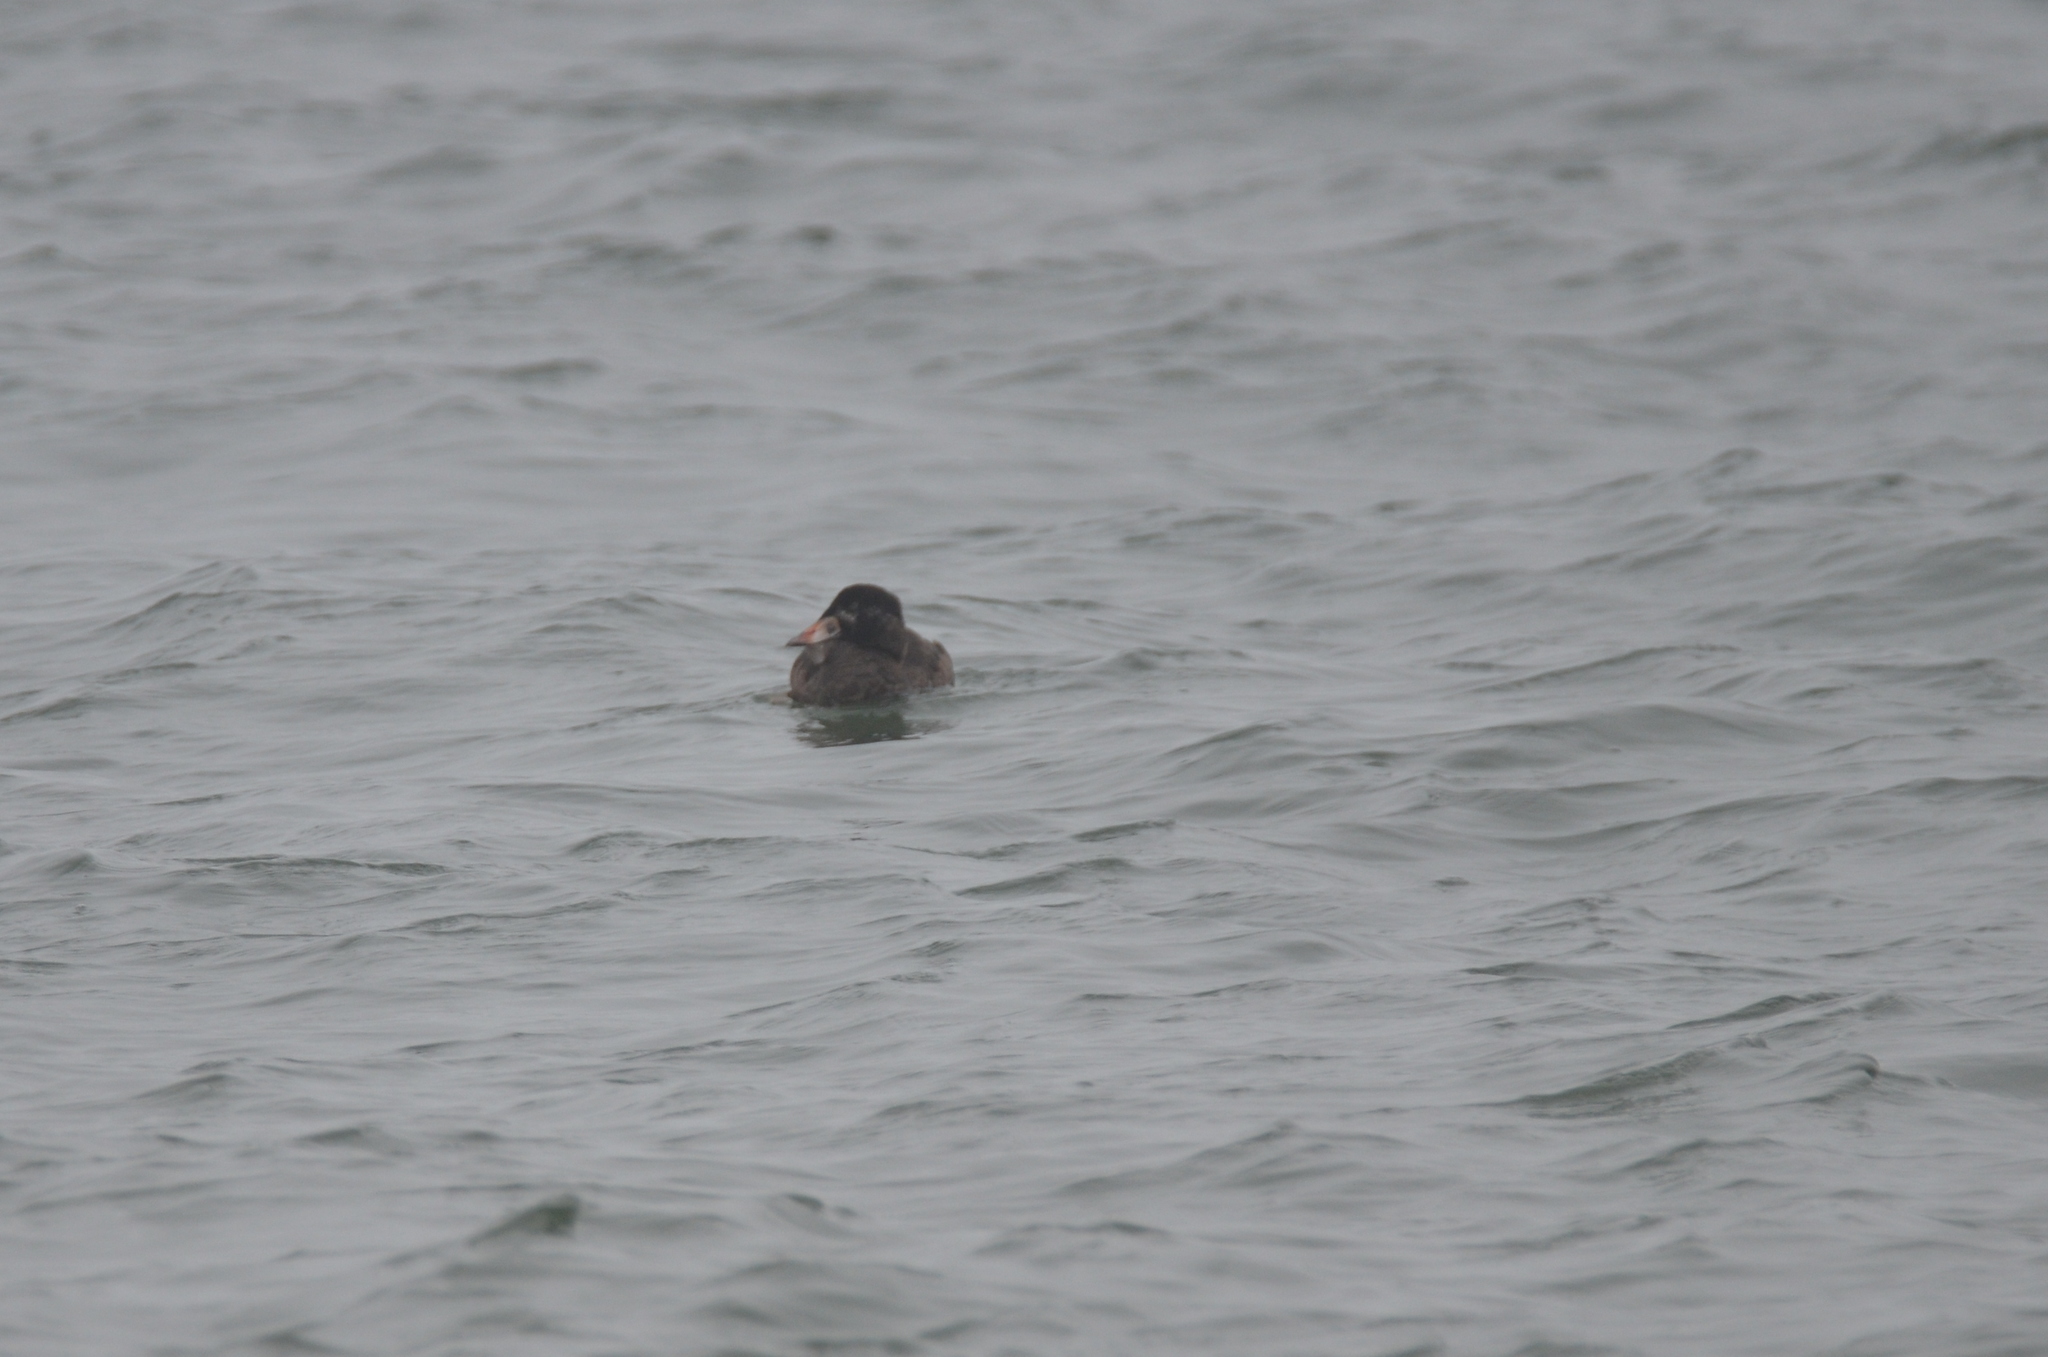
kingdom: Animalia
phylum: Chordata
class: Aves
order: Anseriformes
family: Anatidae
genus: Melanitta
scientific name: Melanitta perspicillata
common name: Surf scoter
